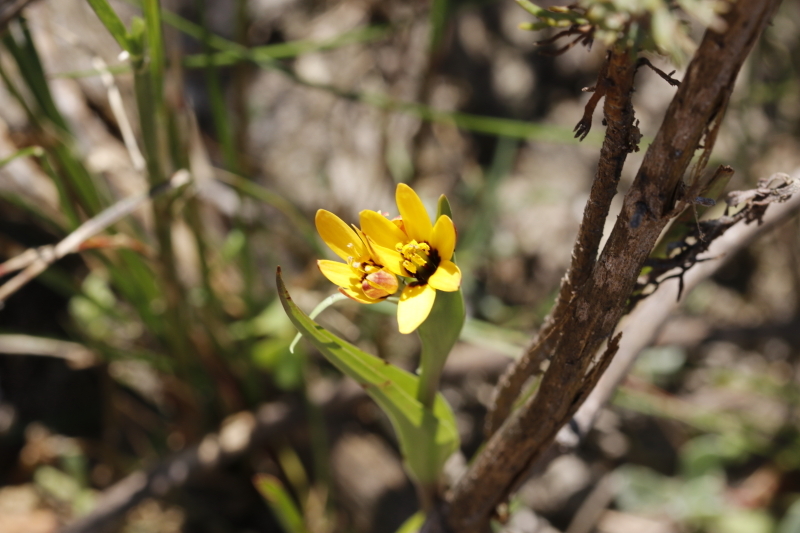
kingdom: Plantae
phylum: Tracheophyta
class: Liliopsida
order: Liliales
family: Colchicaceae
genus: Baeometra
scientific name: Baeometra uniflora
